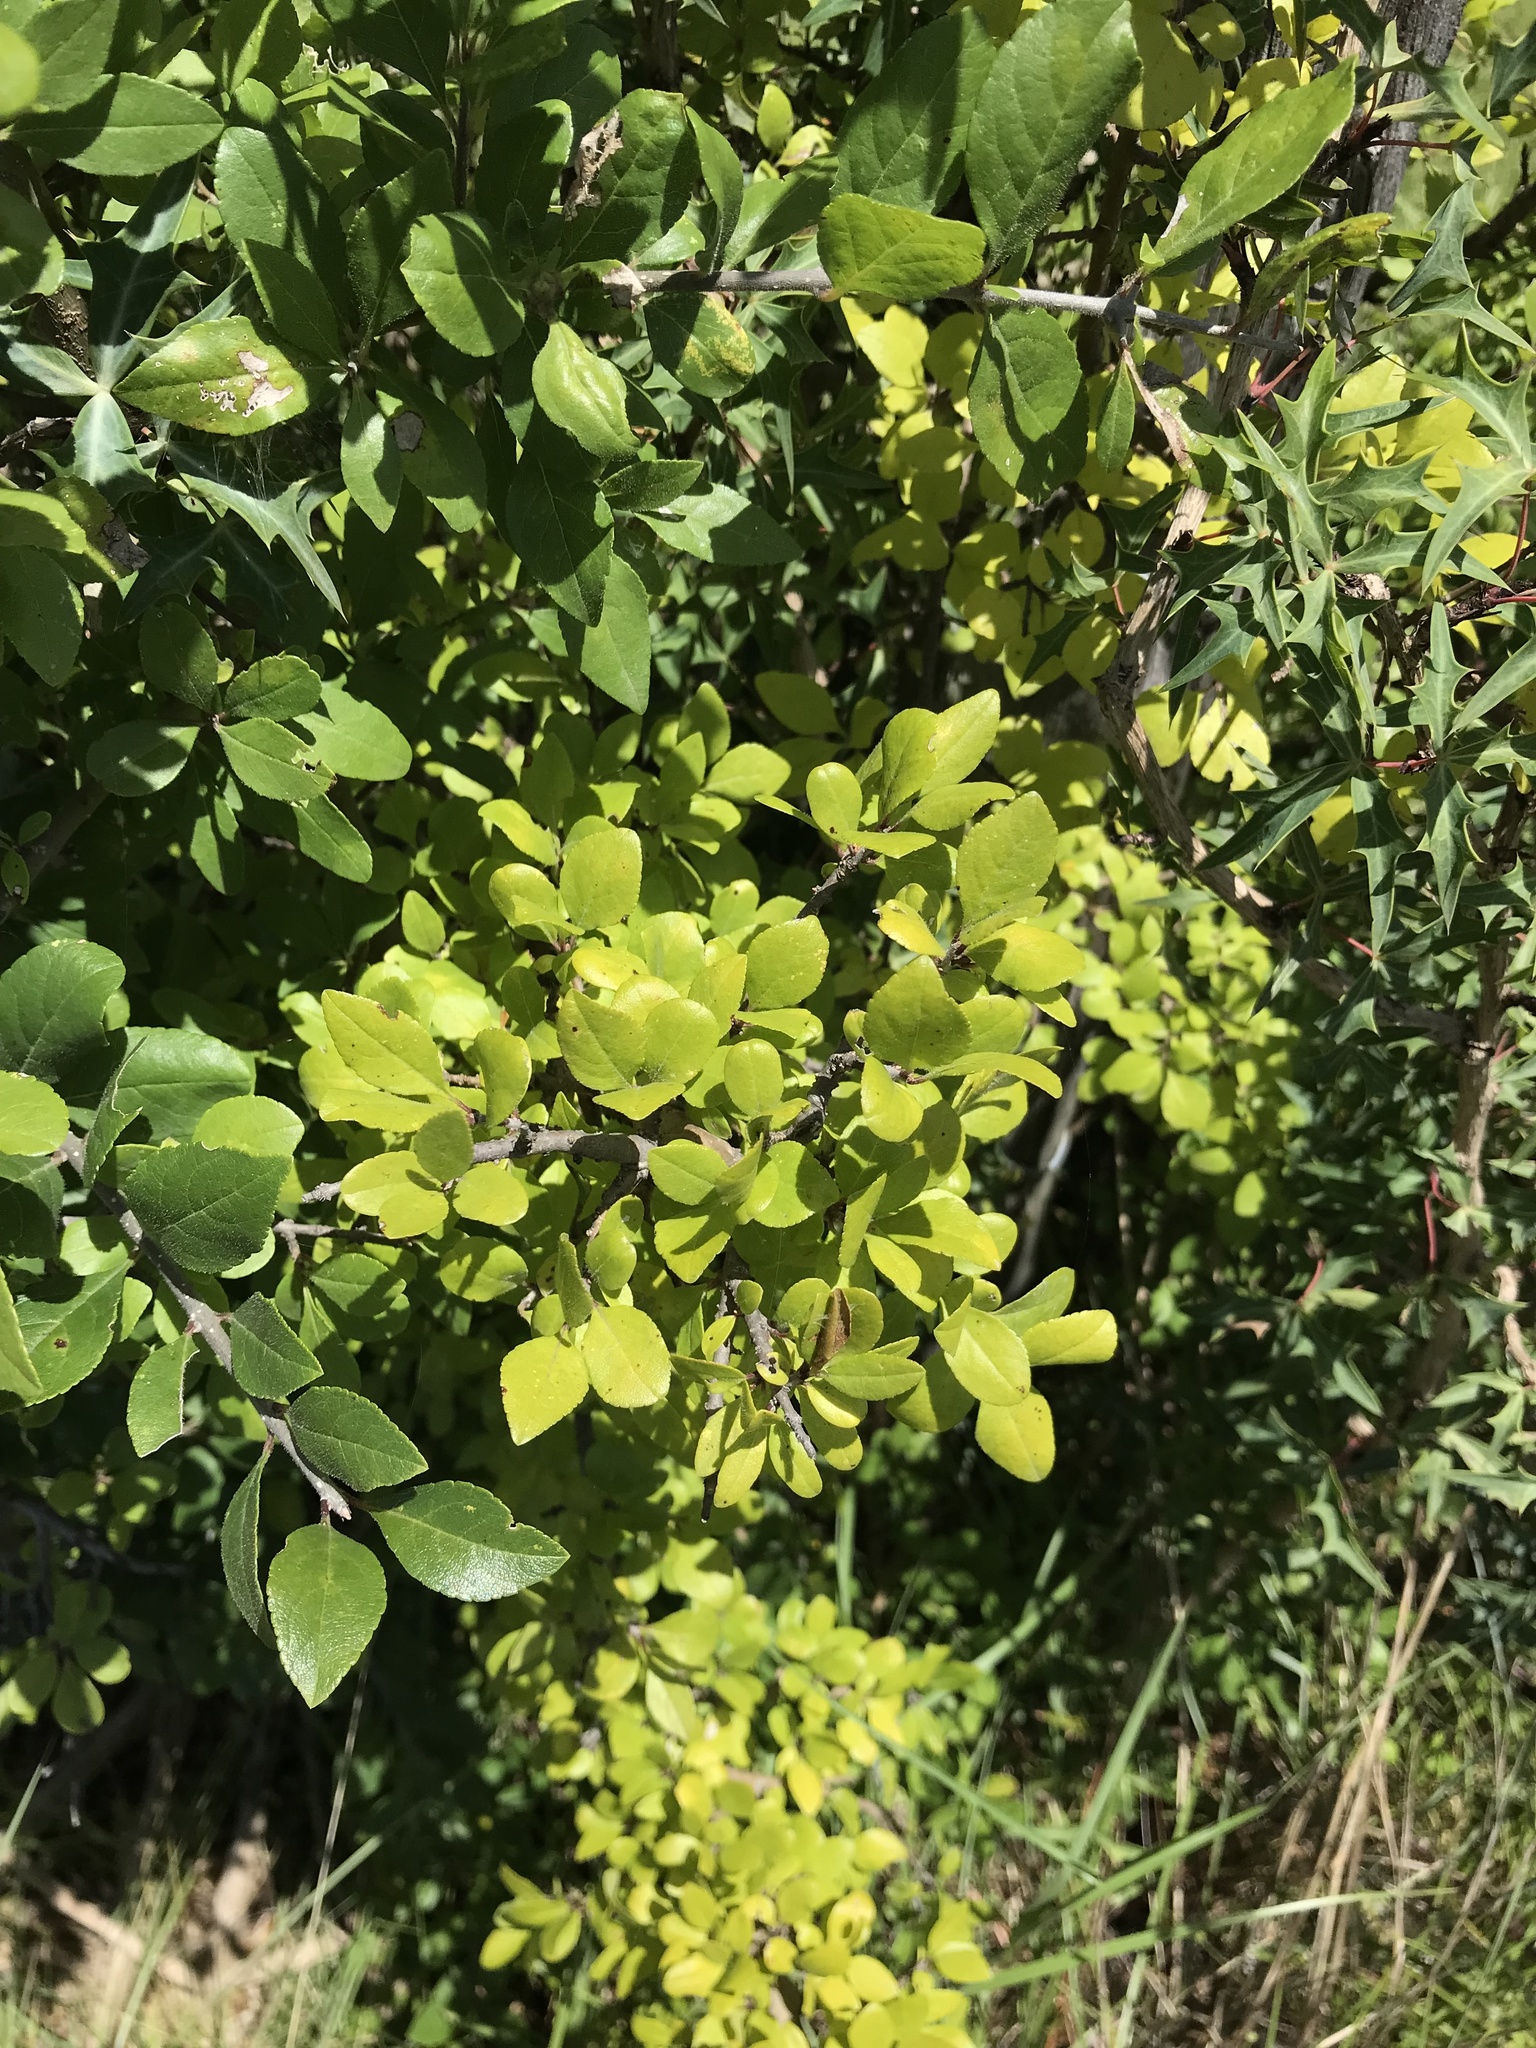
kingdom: Plantae
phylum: Tracheophyta
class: Magnoliopsida
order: Lamiales
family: Oleaceae
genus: Forestiera
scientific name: Forestiera pubescens
